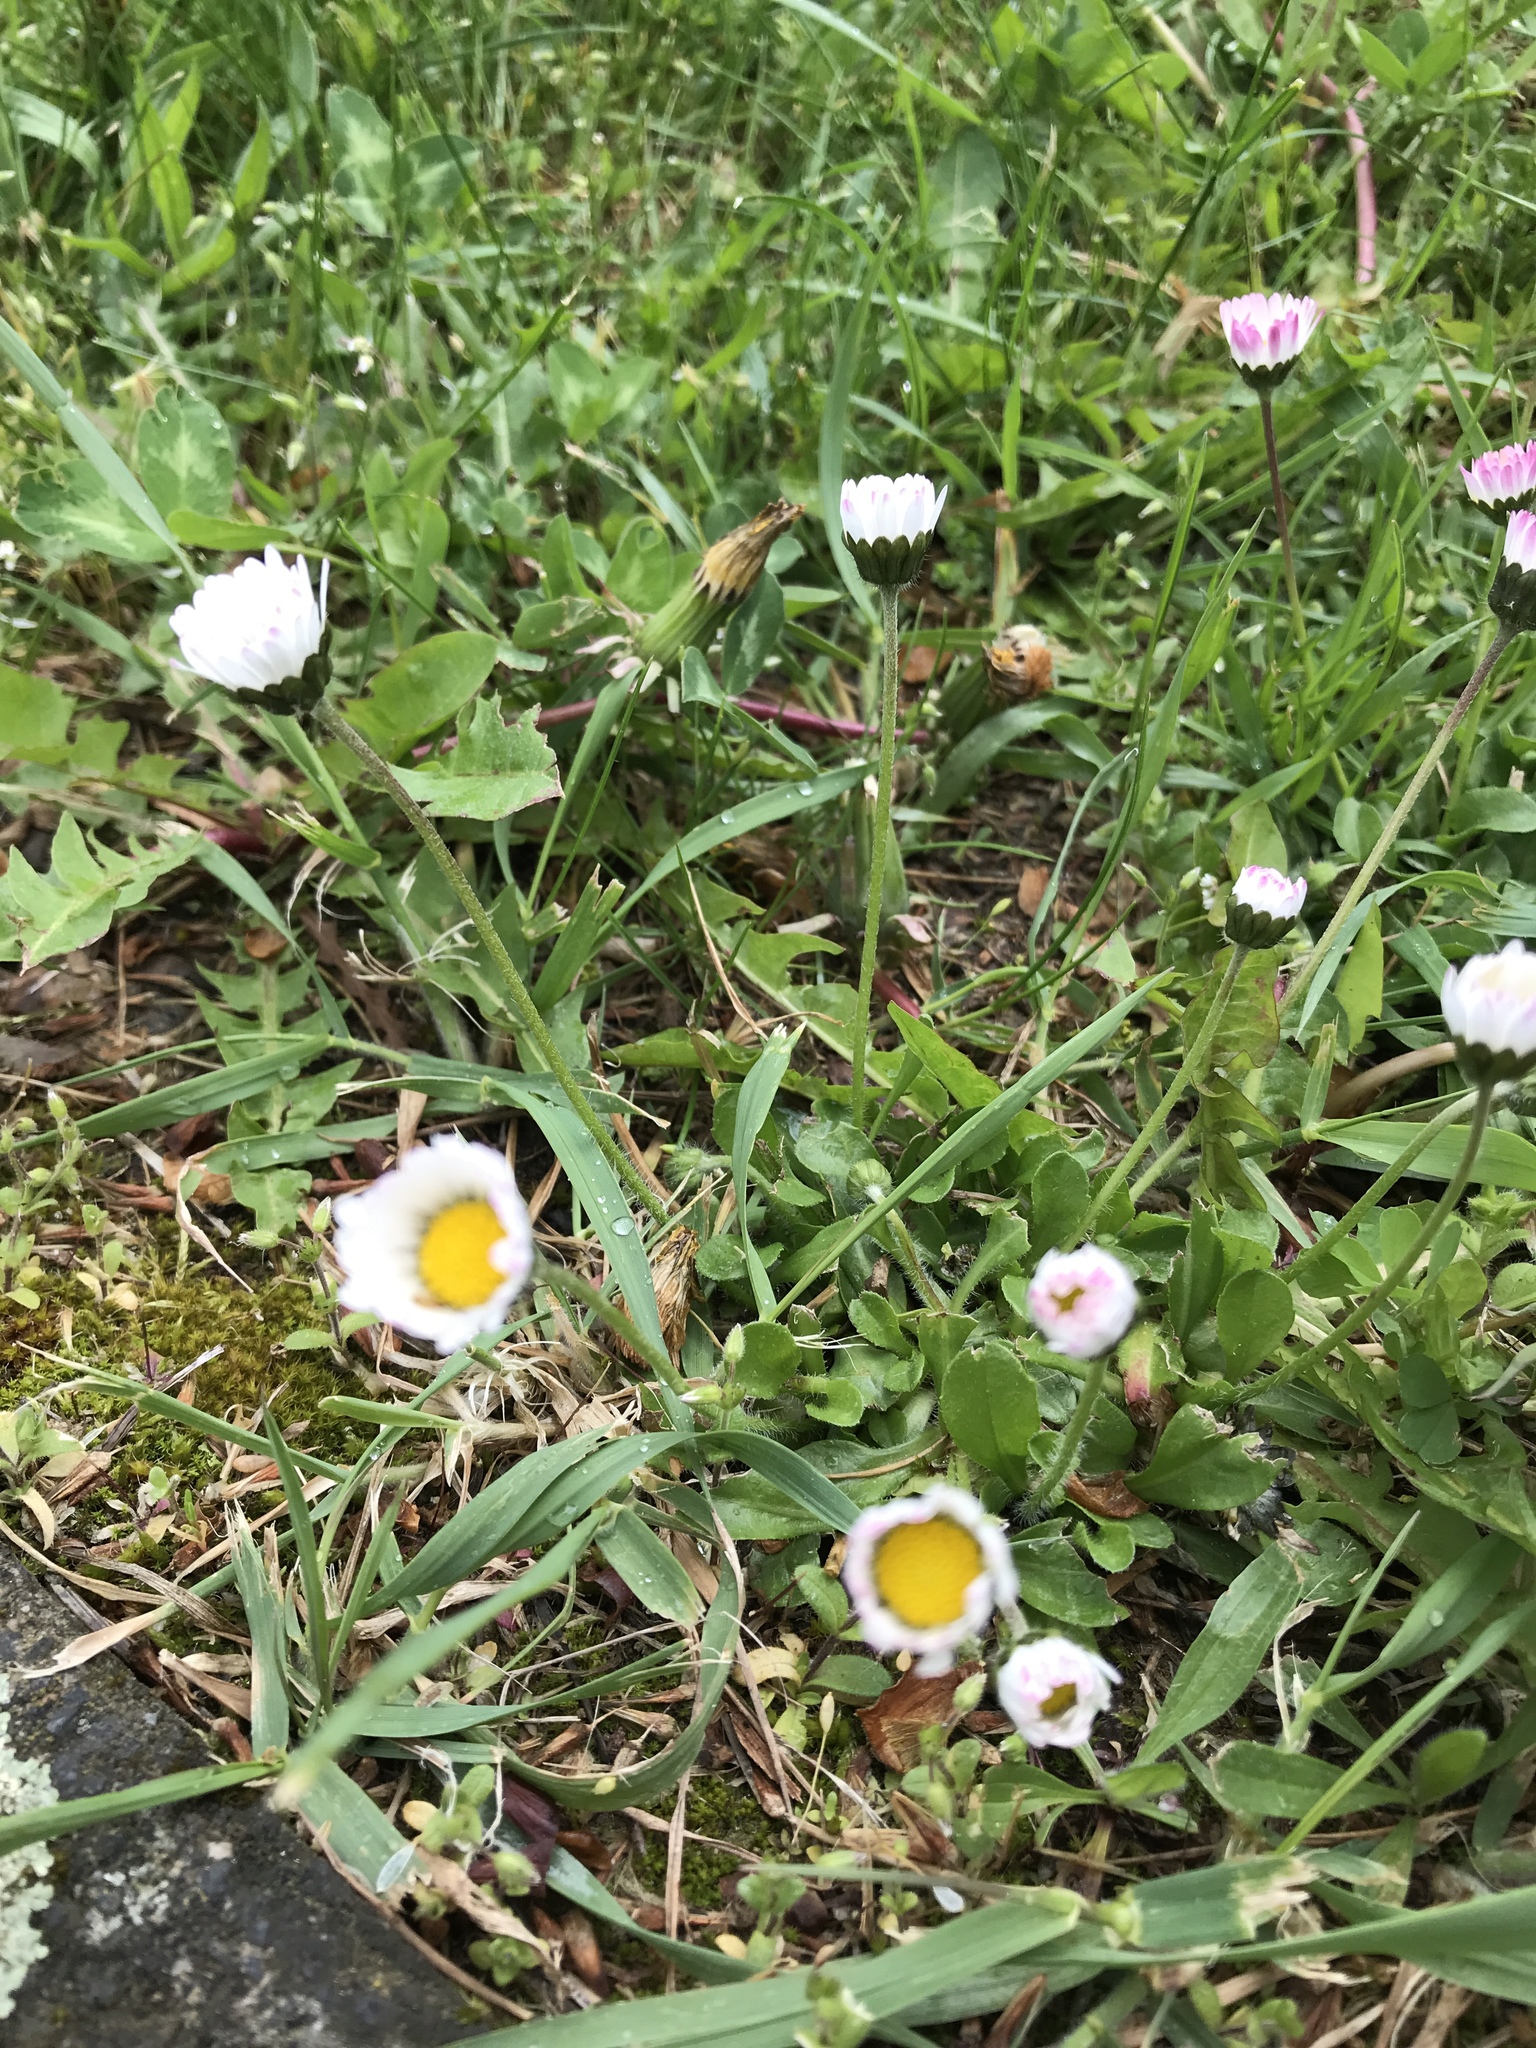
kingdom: Plantae
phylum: Tracheophyta
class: Magnoliopsida
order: Asterales
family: Asteraceae
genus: Bellis
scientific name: Bellis perennis
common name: Lawndaisy
